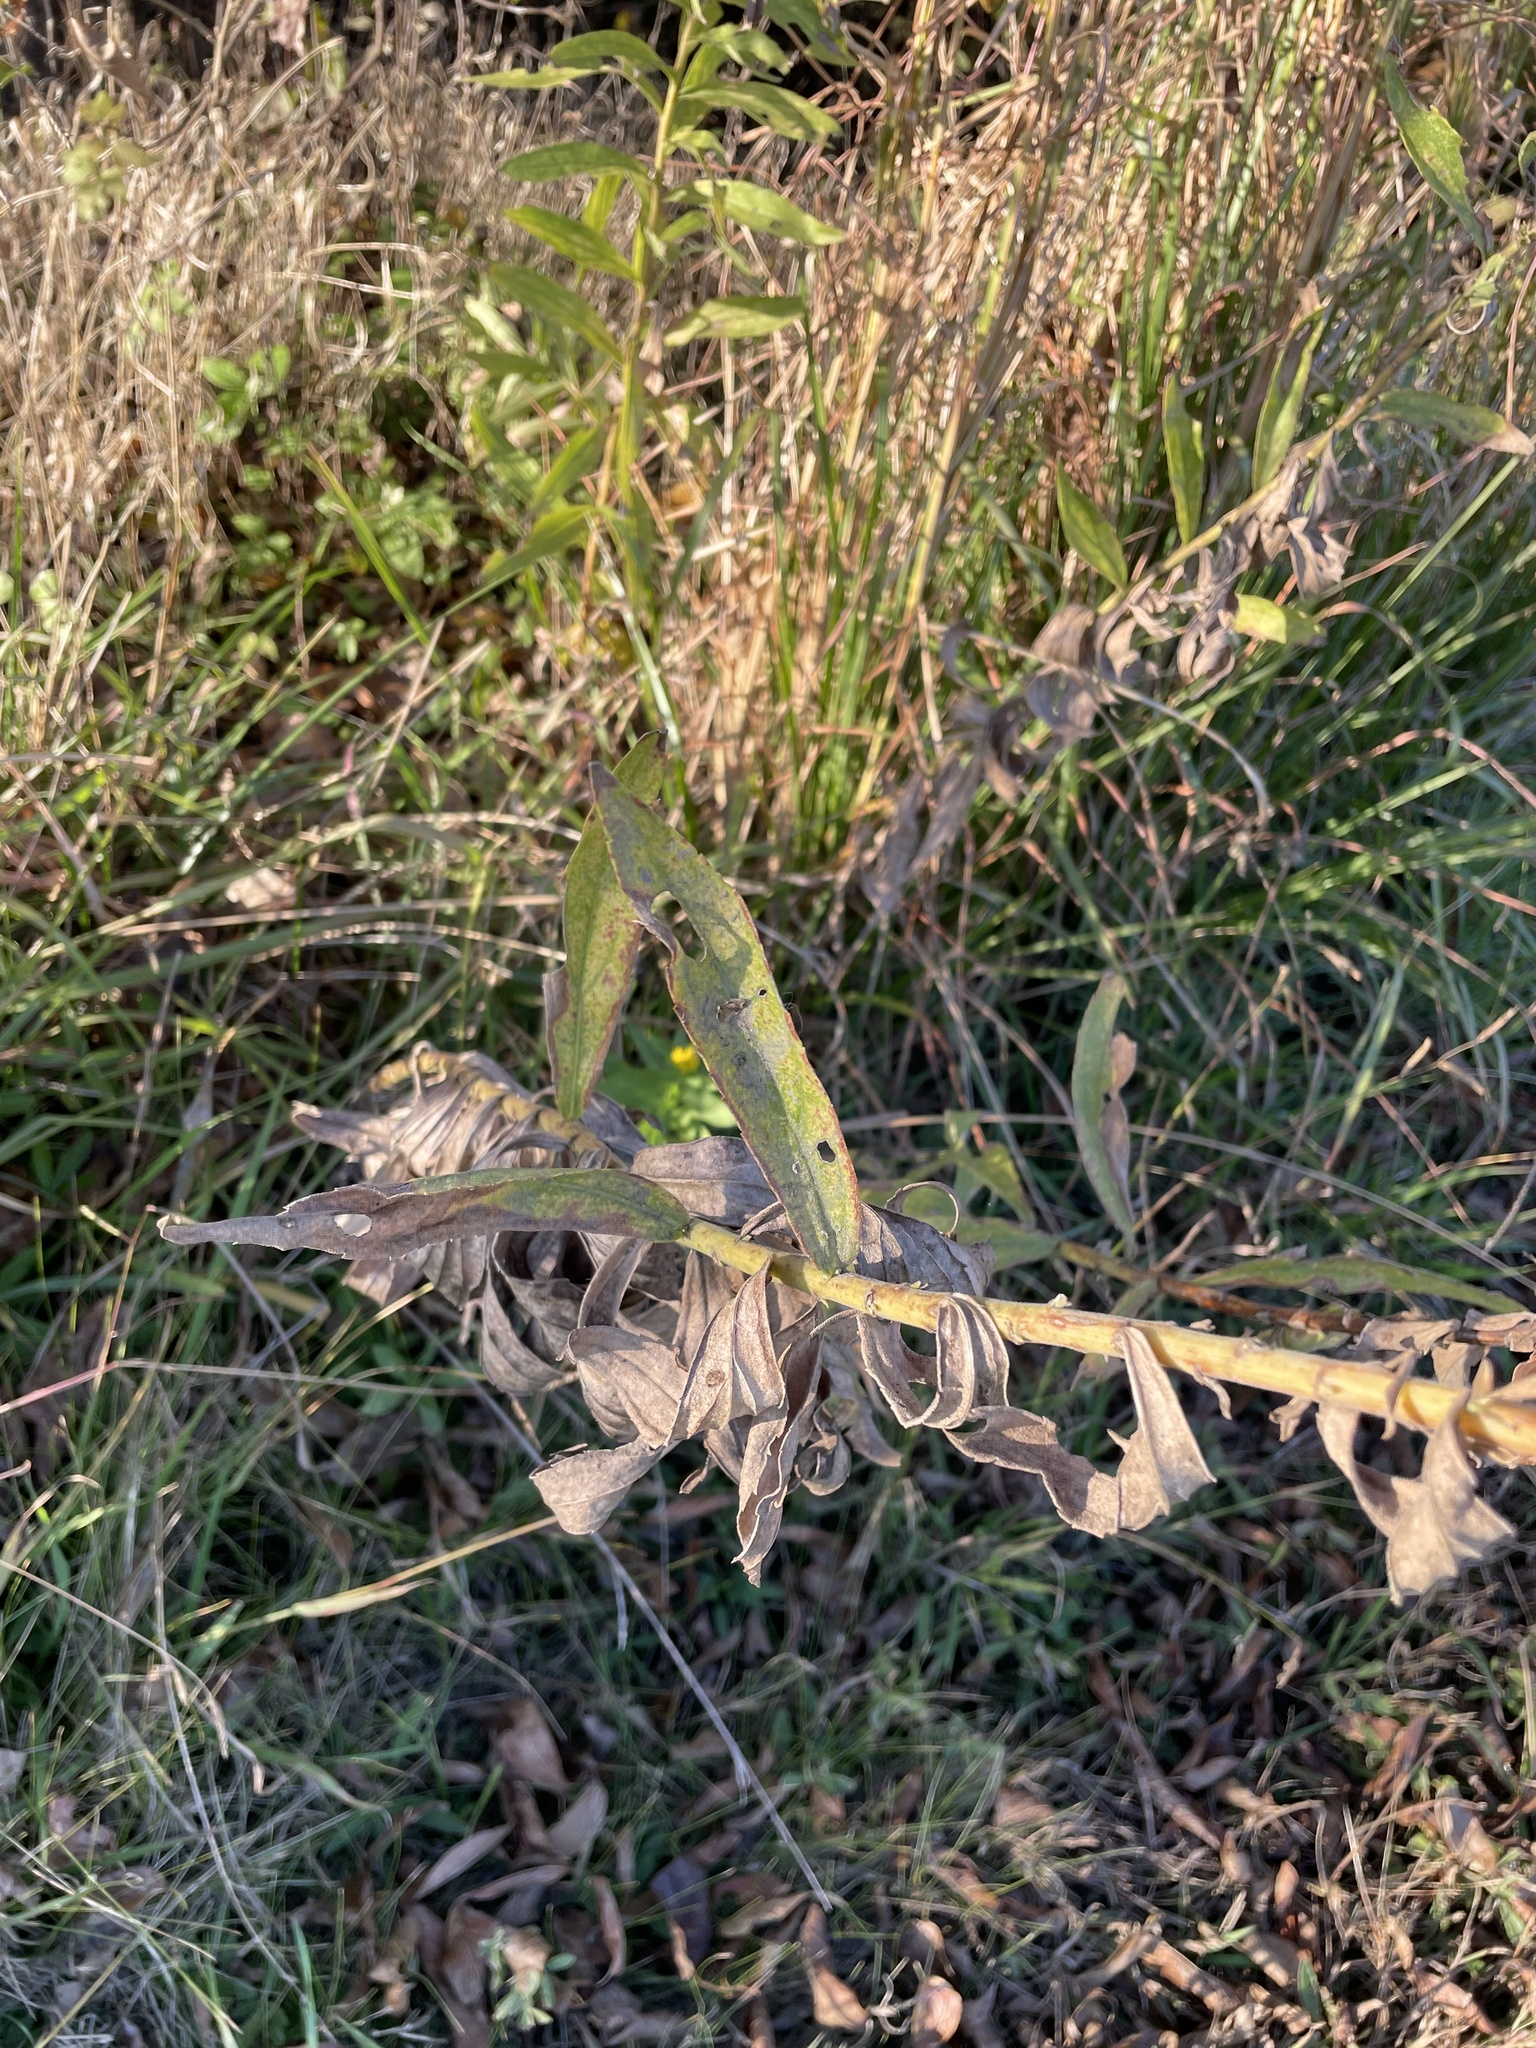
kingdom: Plantae
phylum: Tracheophyta
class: Magnoliopsida
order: Asterales
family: Asteraceae
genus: Solidago
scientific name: Solidago altissima
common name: Late goldenrod
